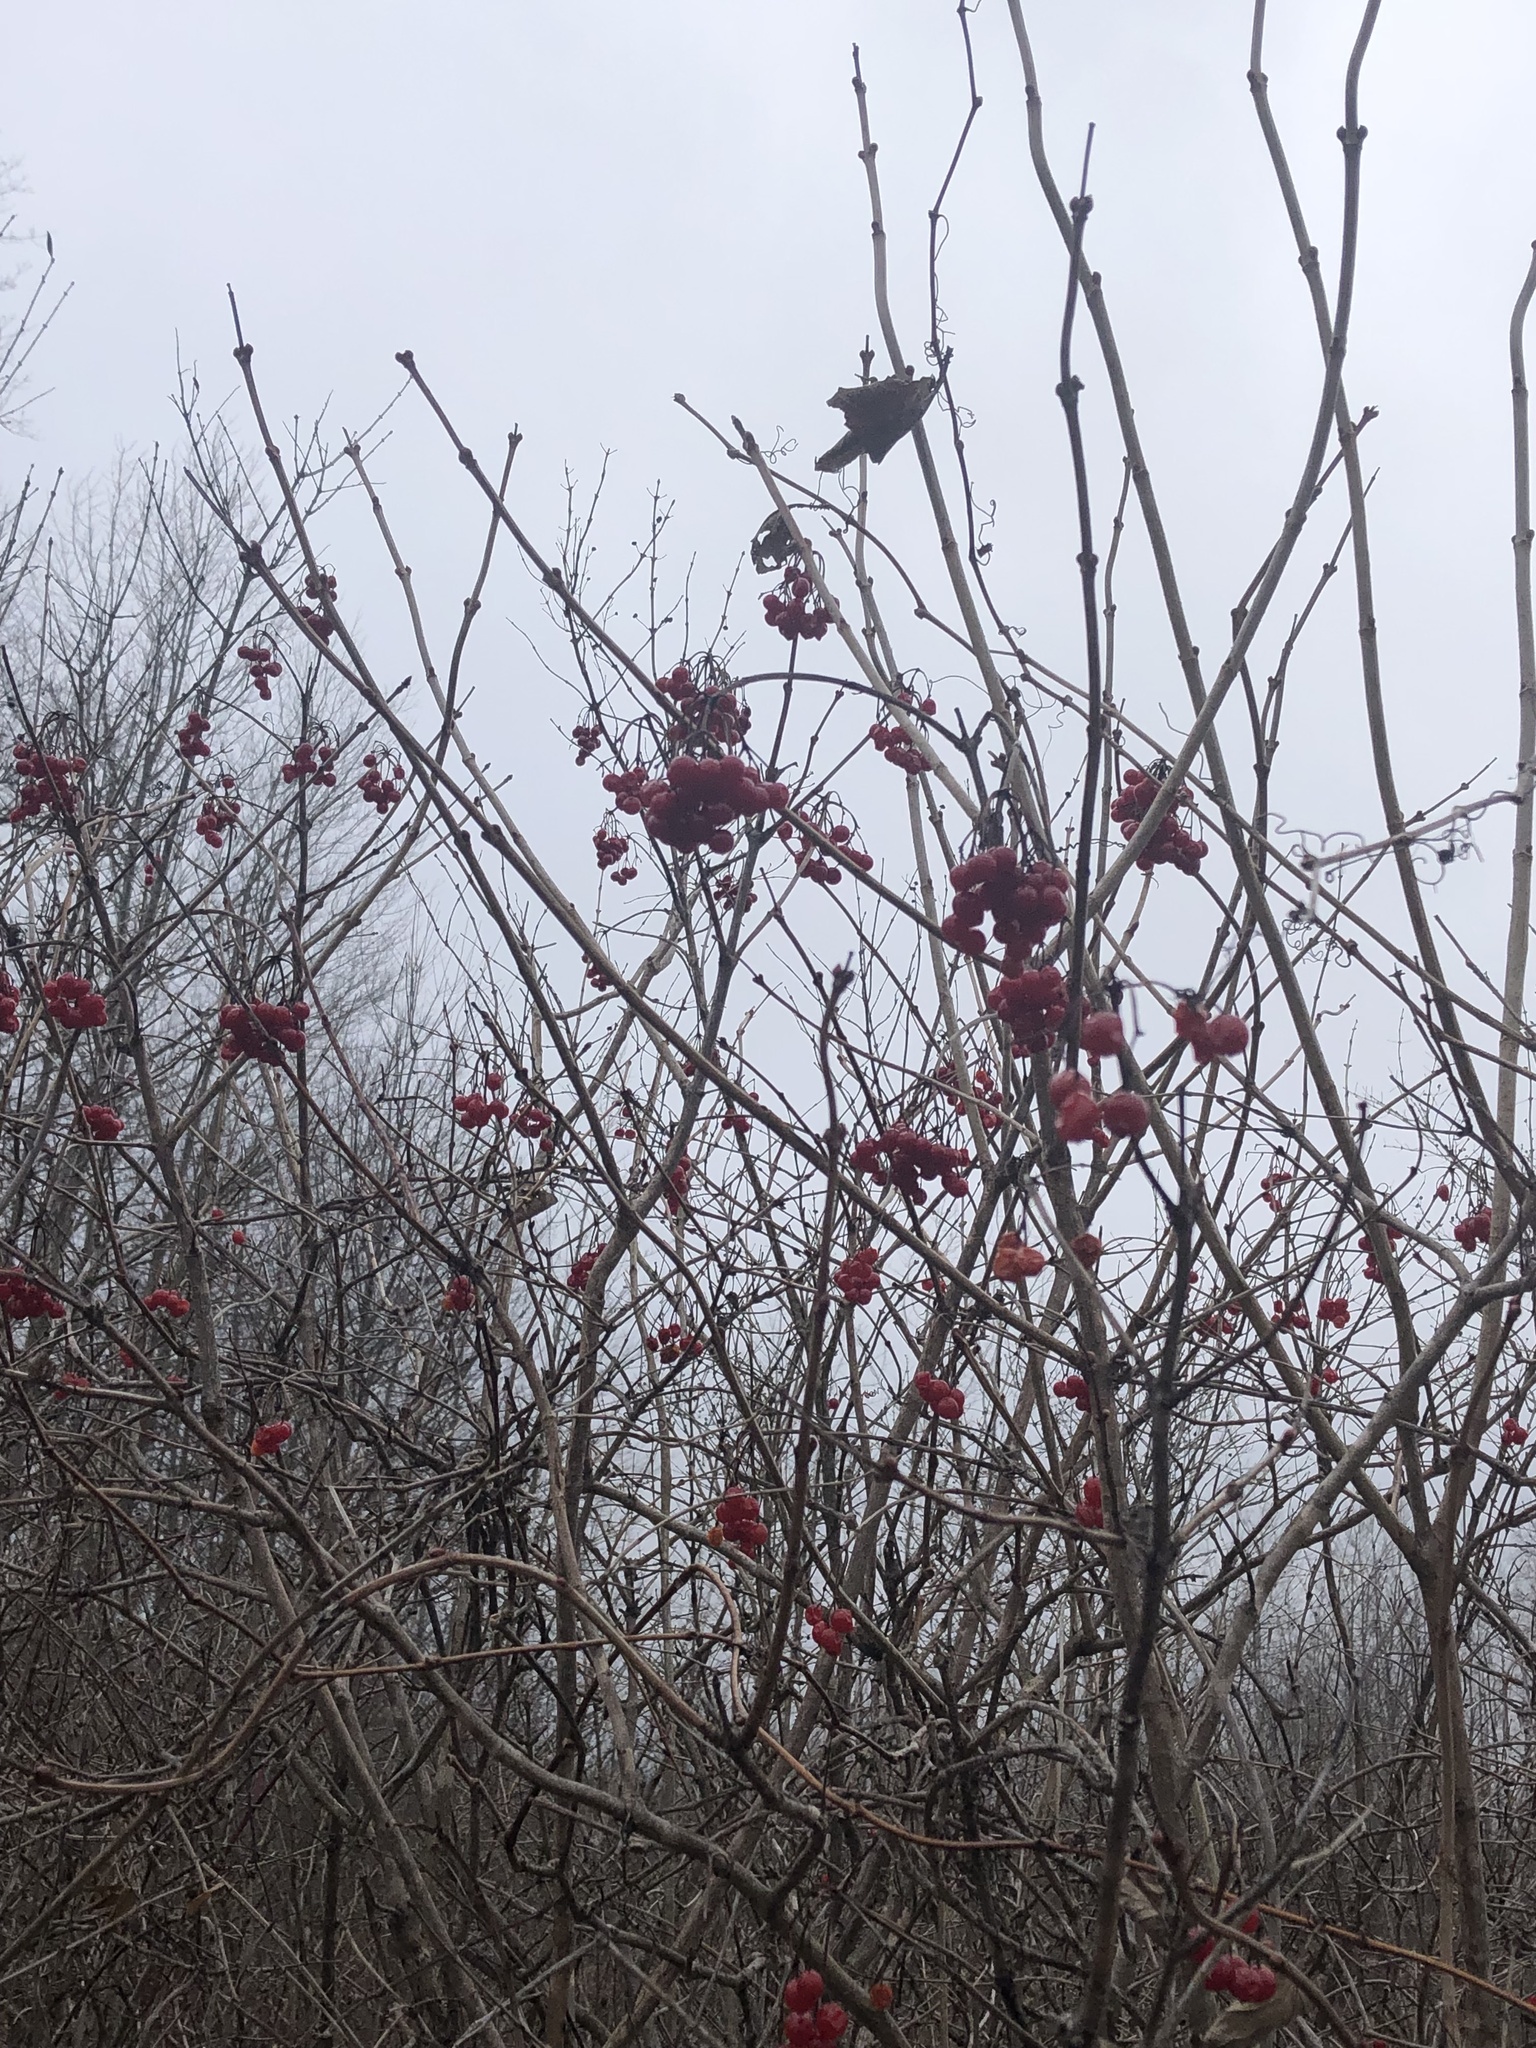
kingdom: Plantae
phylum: Tracheophyta
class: Magnoliopsida
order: Dipsacales
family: Viburnaceae
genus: Viburnum
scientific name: Viburnum opulus
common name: Guelder-rose
